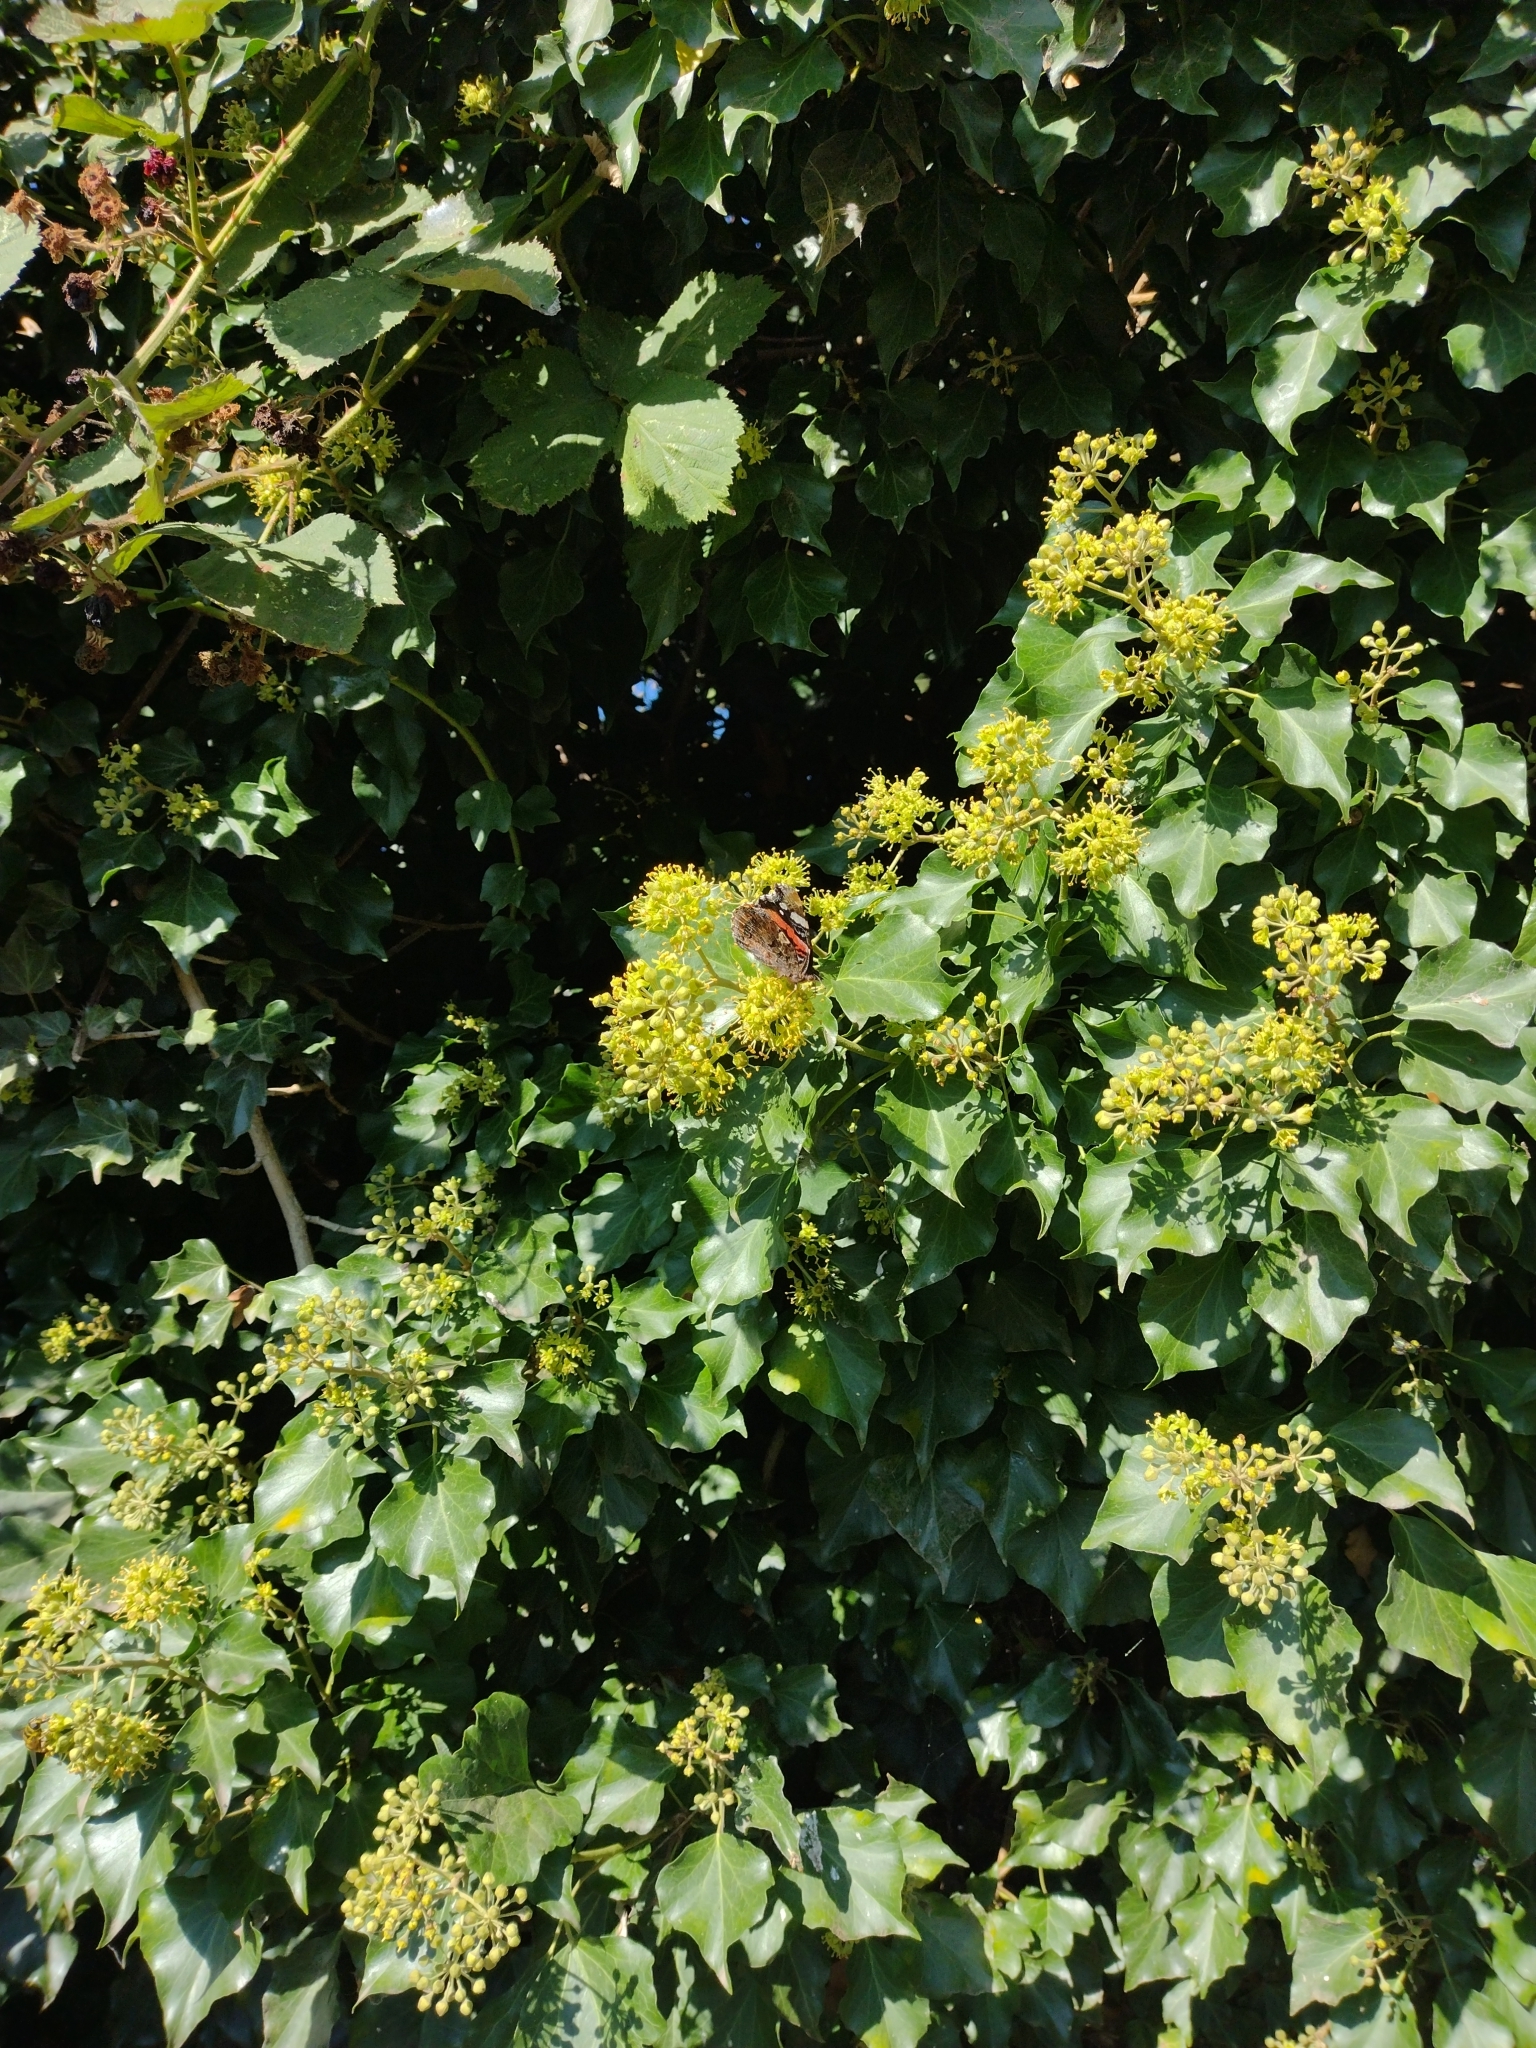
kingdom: Animalia
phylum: Arthropoda
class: Insecta
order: Lepidoptera
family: Nymphalidae
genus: Vanessa
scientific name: Vanessa atalanta
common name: Red admiral
